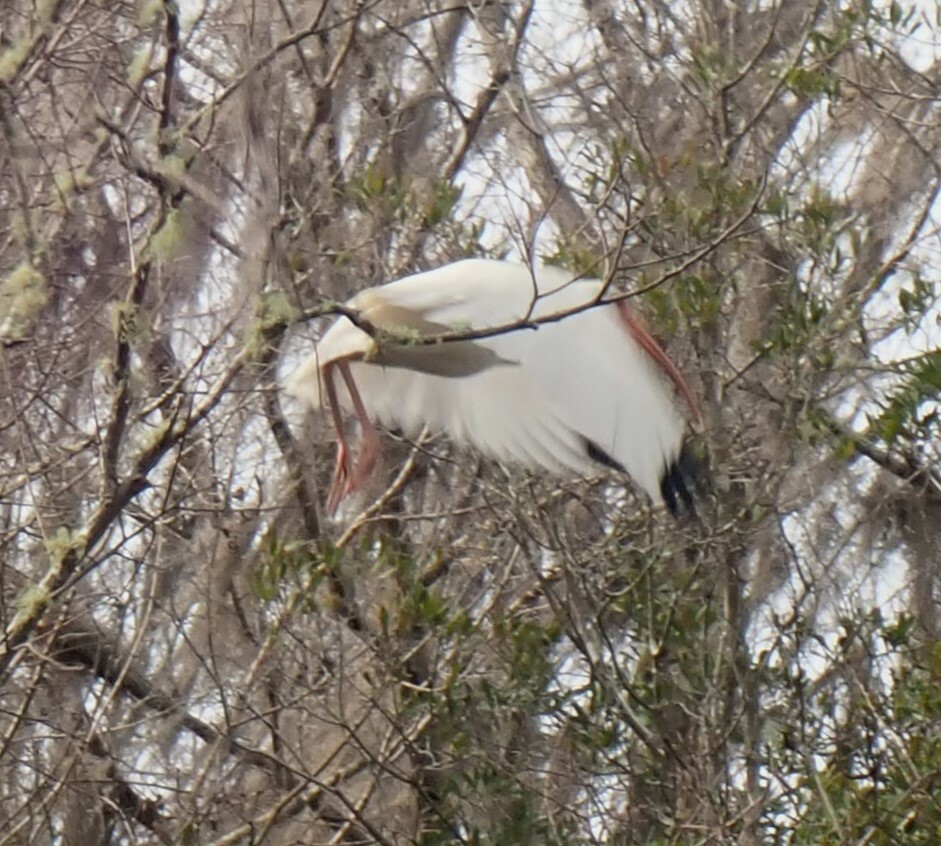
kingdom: Animalia
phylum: Chordata
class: Aves
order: Pelecaniformes
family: Threskiornithidae
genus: Eudocimus
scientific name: Eudocimus albus
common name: White ibis
